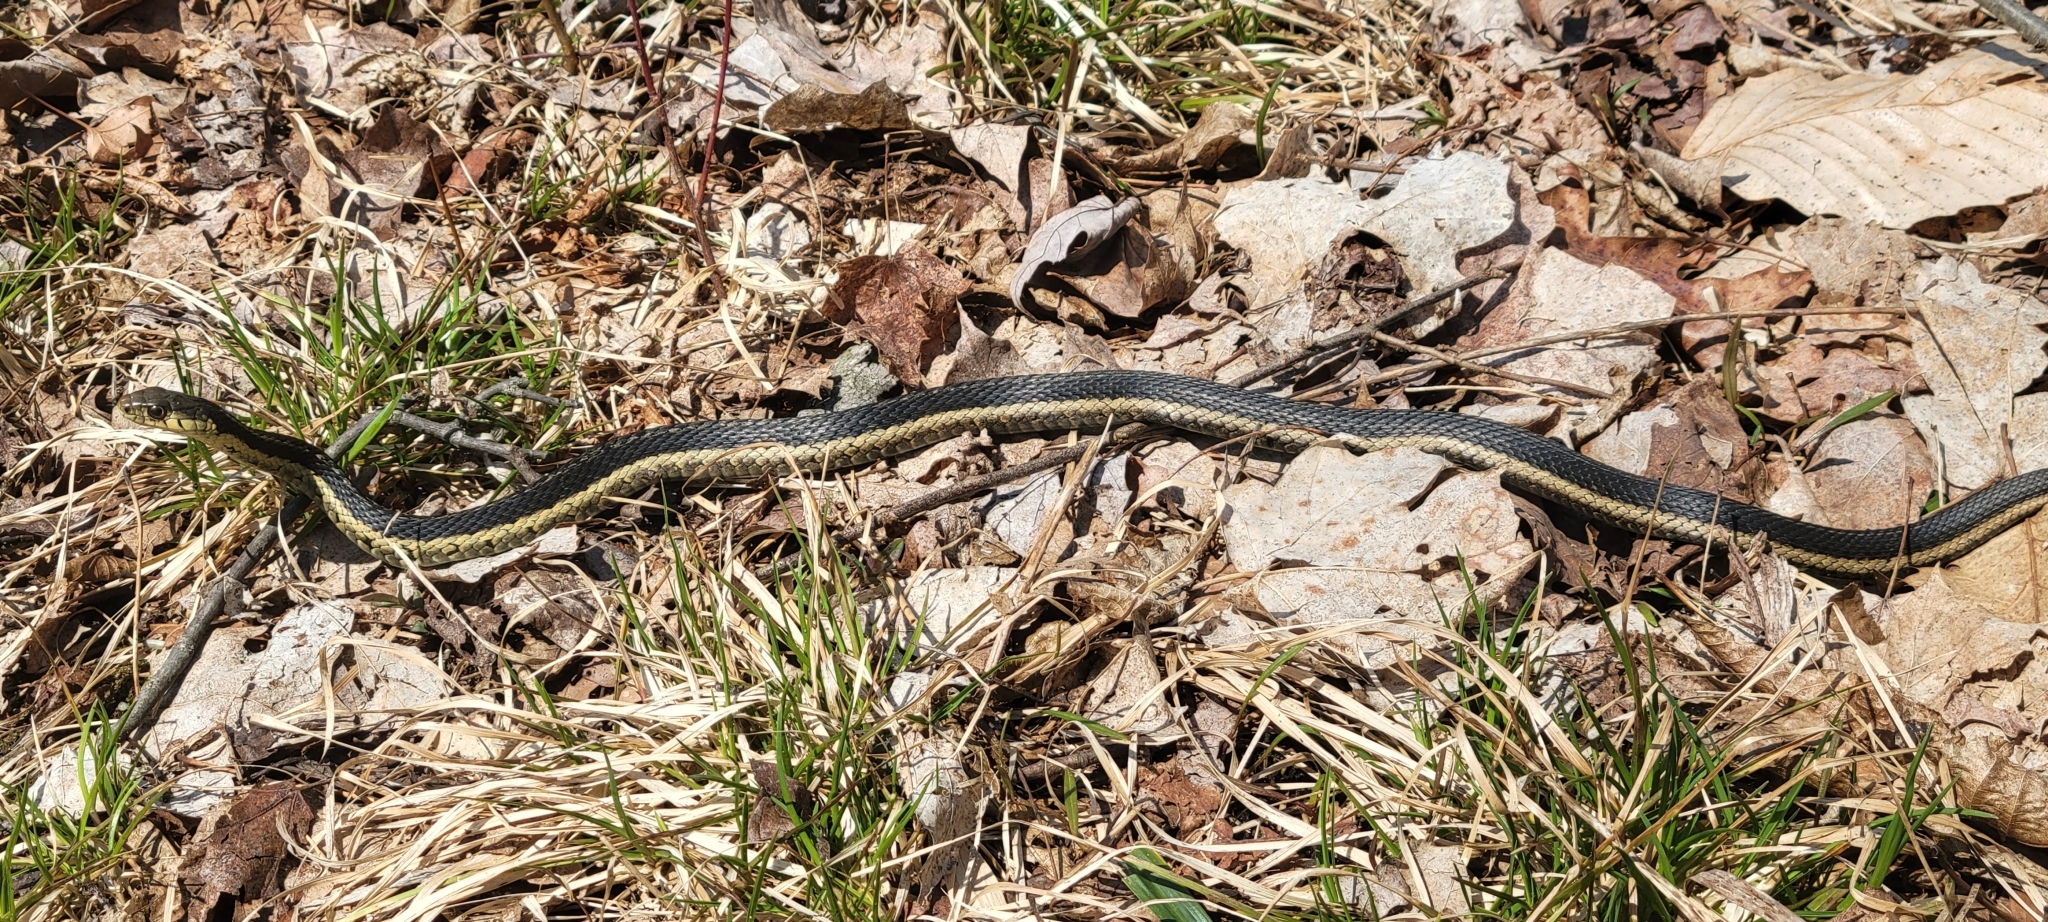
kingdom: Animalia
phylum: Chordata
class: Squamata
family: Colubridae
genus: Thamnophis
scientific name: Thamnophis sirtalis
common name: Common garter snake
